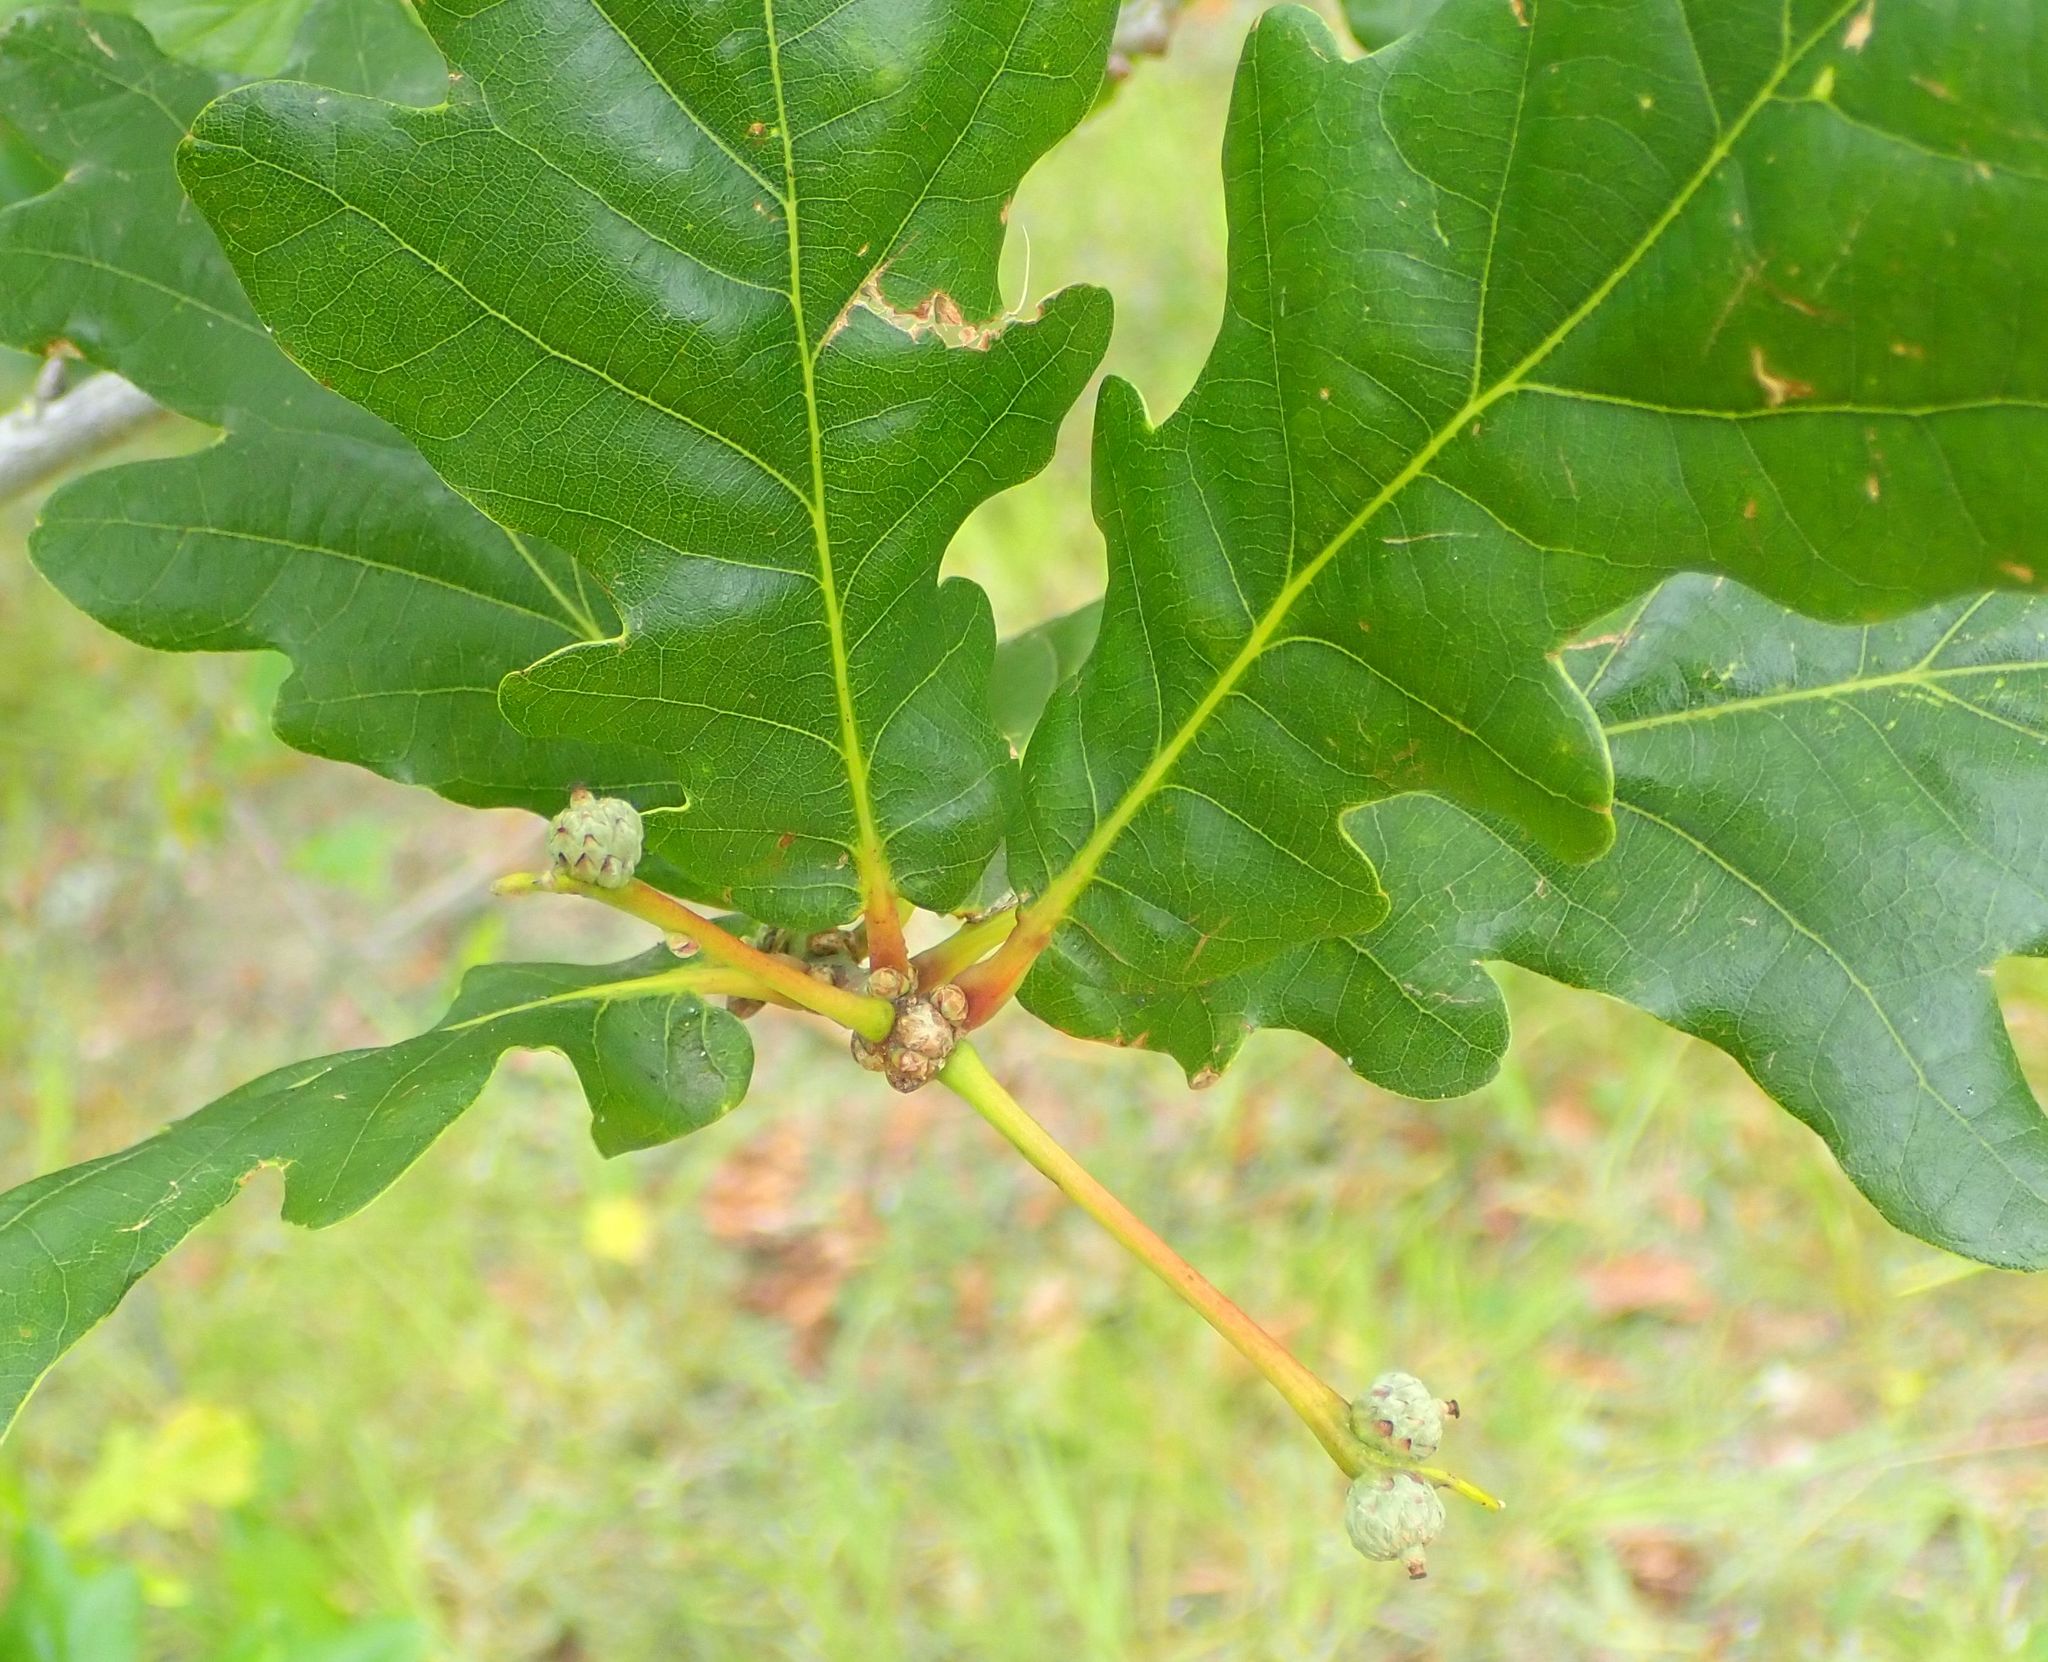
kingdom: Plantae
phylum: Tracheophyta
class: Magnoliopsida
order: Fagales
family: Fagaceae
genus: Quercus
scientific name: Quercus robur
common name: Pedunculate oak
